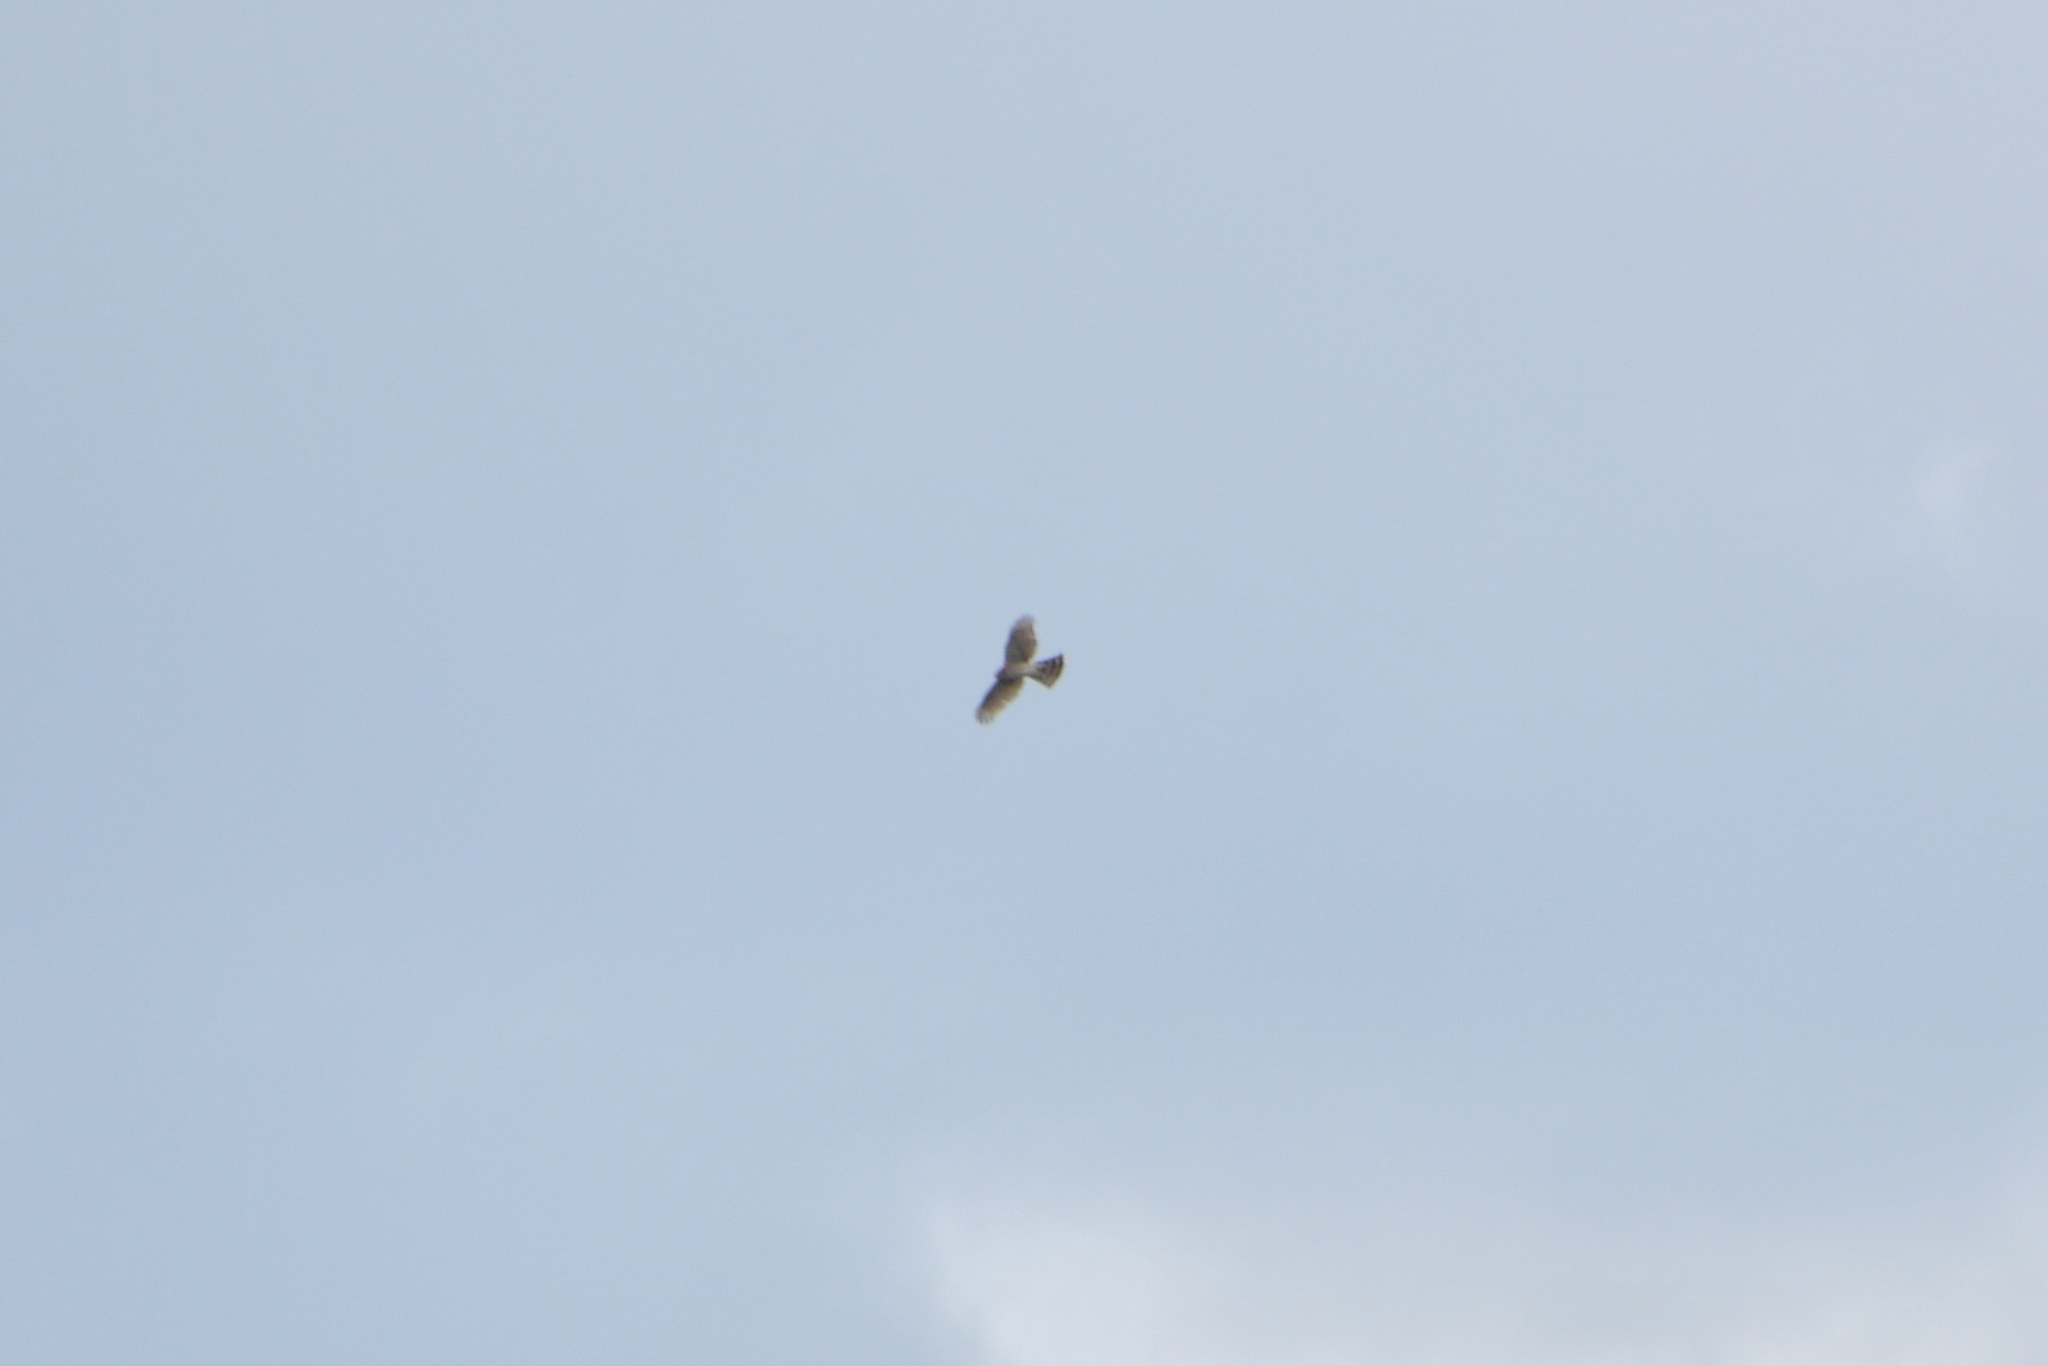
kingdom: Animalia
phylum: Chordata
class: Aves
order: Accipitriformes
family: Accipitridae
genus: Accipiter
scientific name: Accipiter striatus
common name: Sharp-shinned hawk
